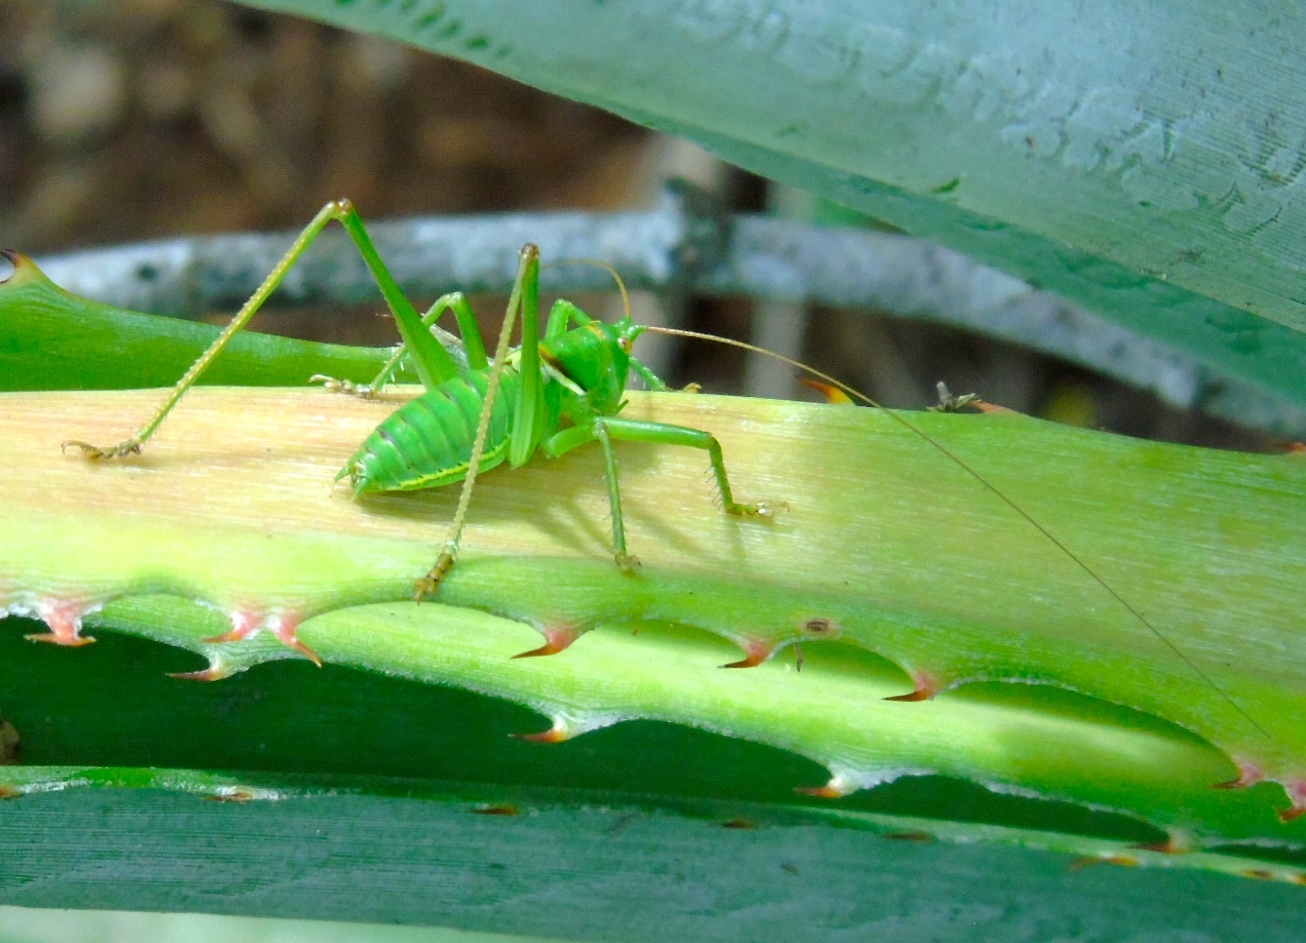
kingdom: Animalia
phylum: Arthropoda
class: Insecta
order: Orthoptera
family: Tettigoniidae
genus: Neobarrettia
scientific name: Neobarrettia sinaloae
